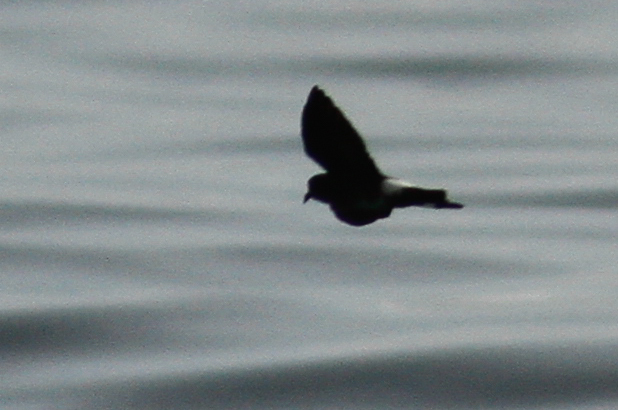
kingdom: Animalia
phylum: Chordata
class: Aves
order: Procellariiformes
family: Hydrobatidae
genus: Oceanites
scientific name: Oceanites gracilis
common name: Elliot's storm-petrel
